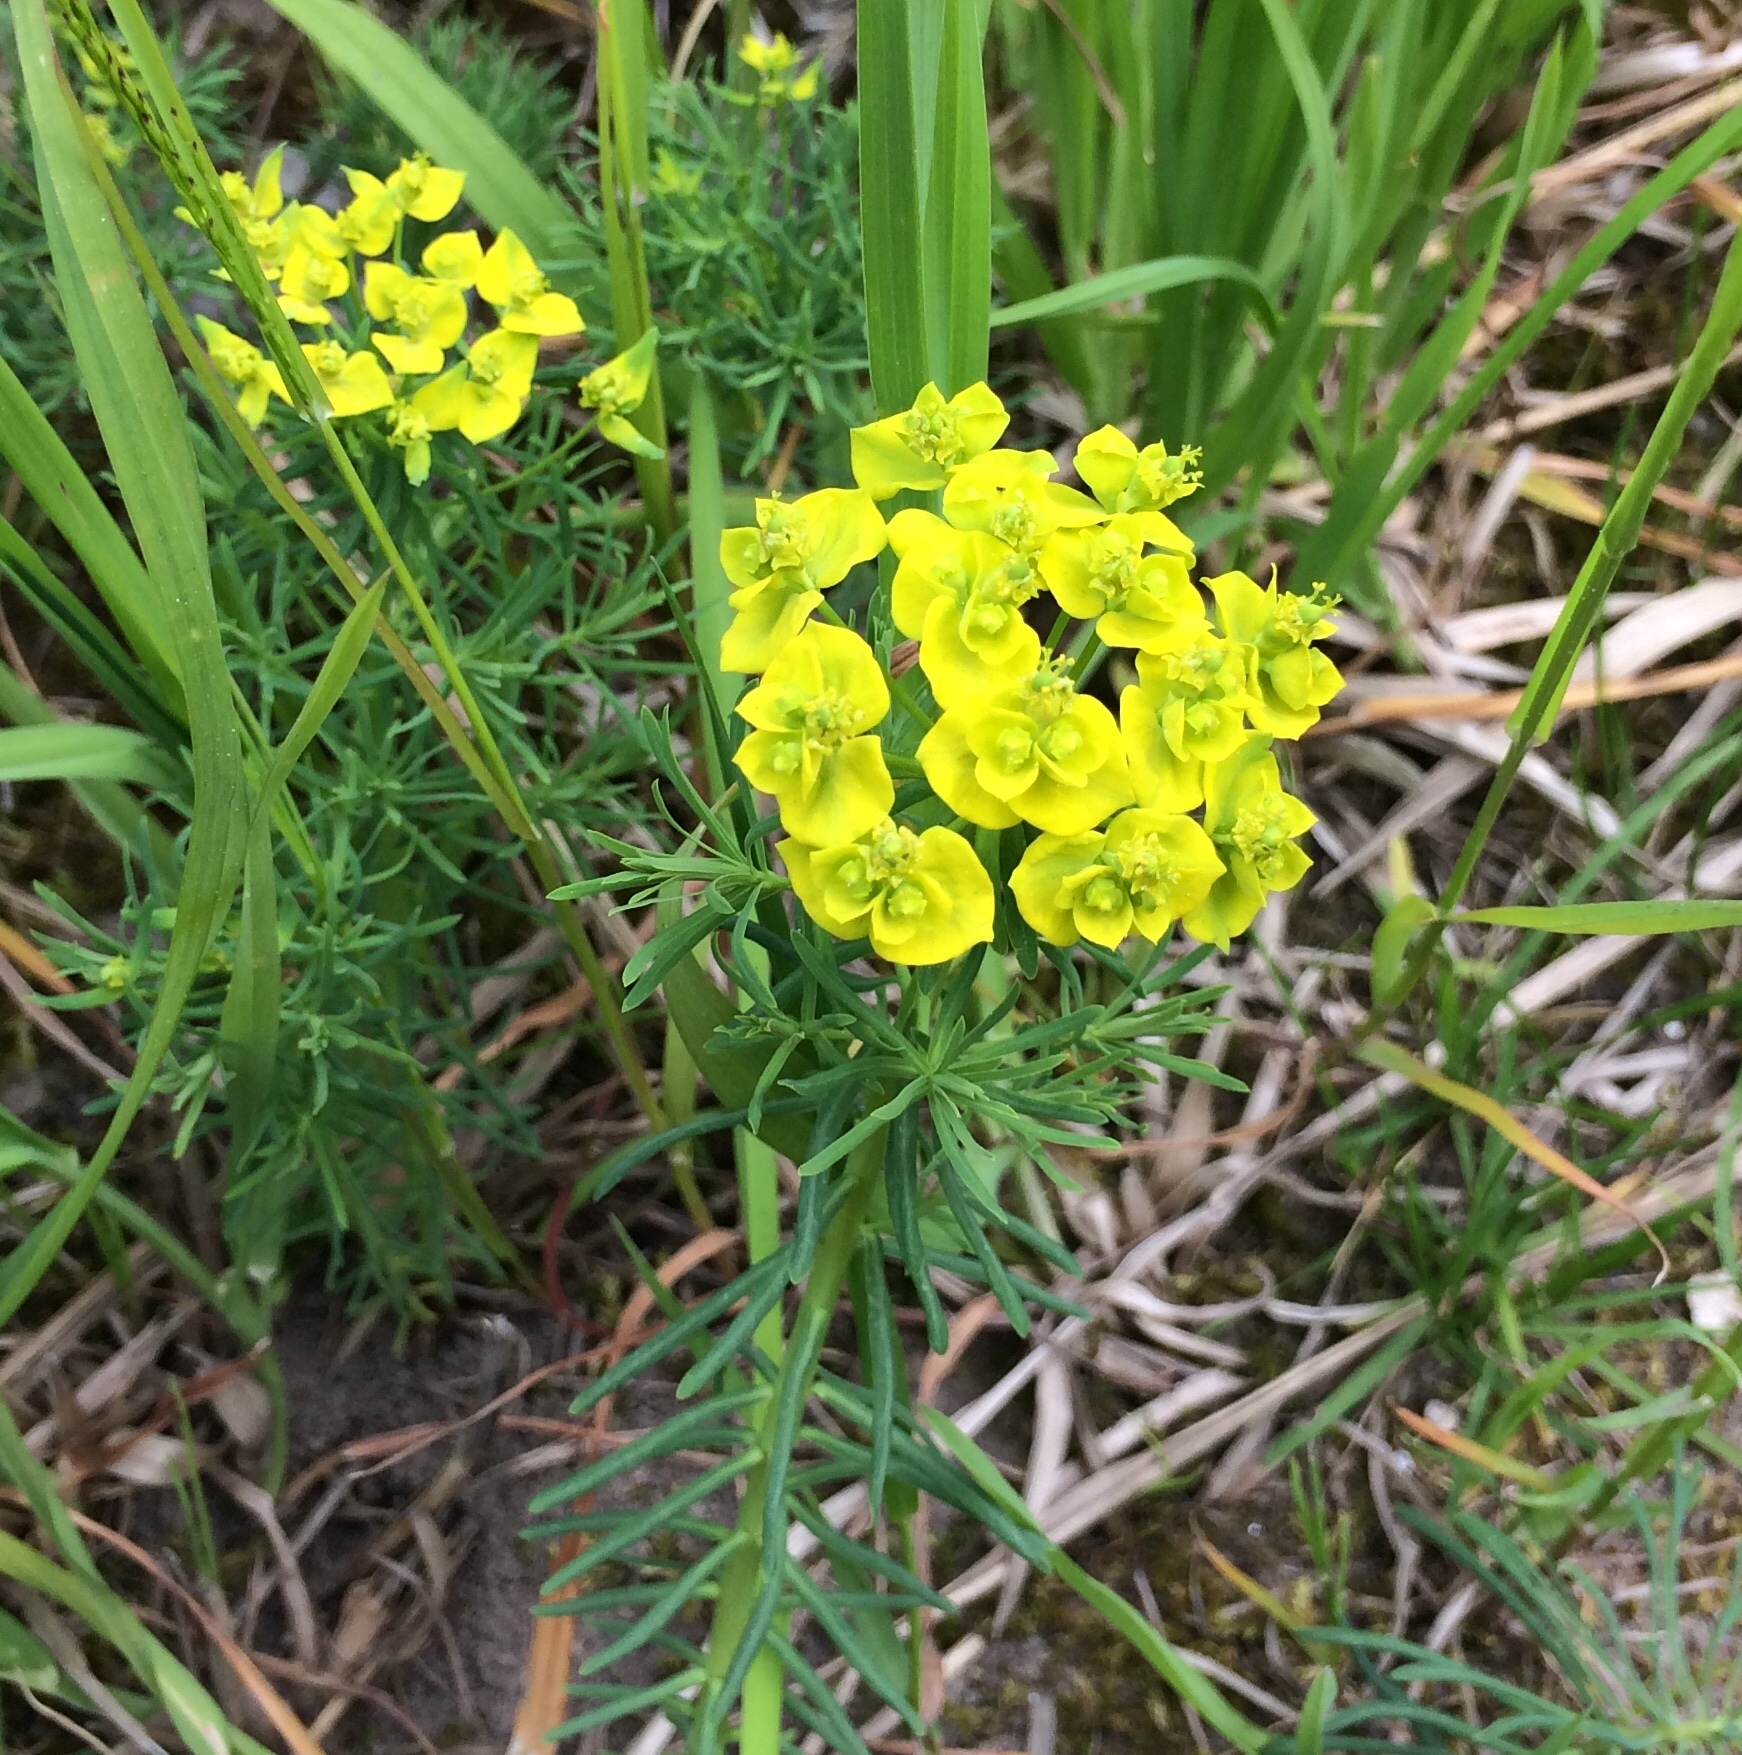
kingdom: Plantae
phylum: Tracheophyta
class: Magnoliopsida
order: Malpighiales
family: Euphorbiaceae
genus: Euphorbia
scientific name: Euphorbia cyparissias
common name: Cypress spurge
